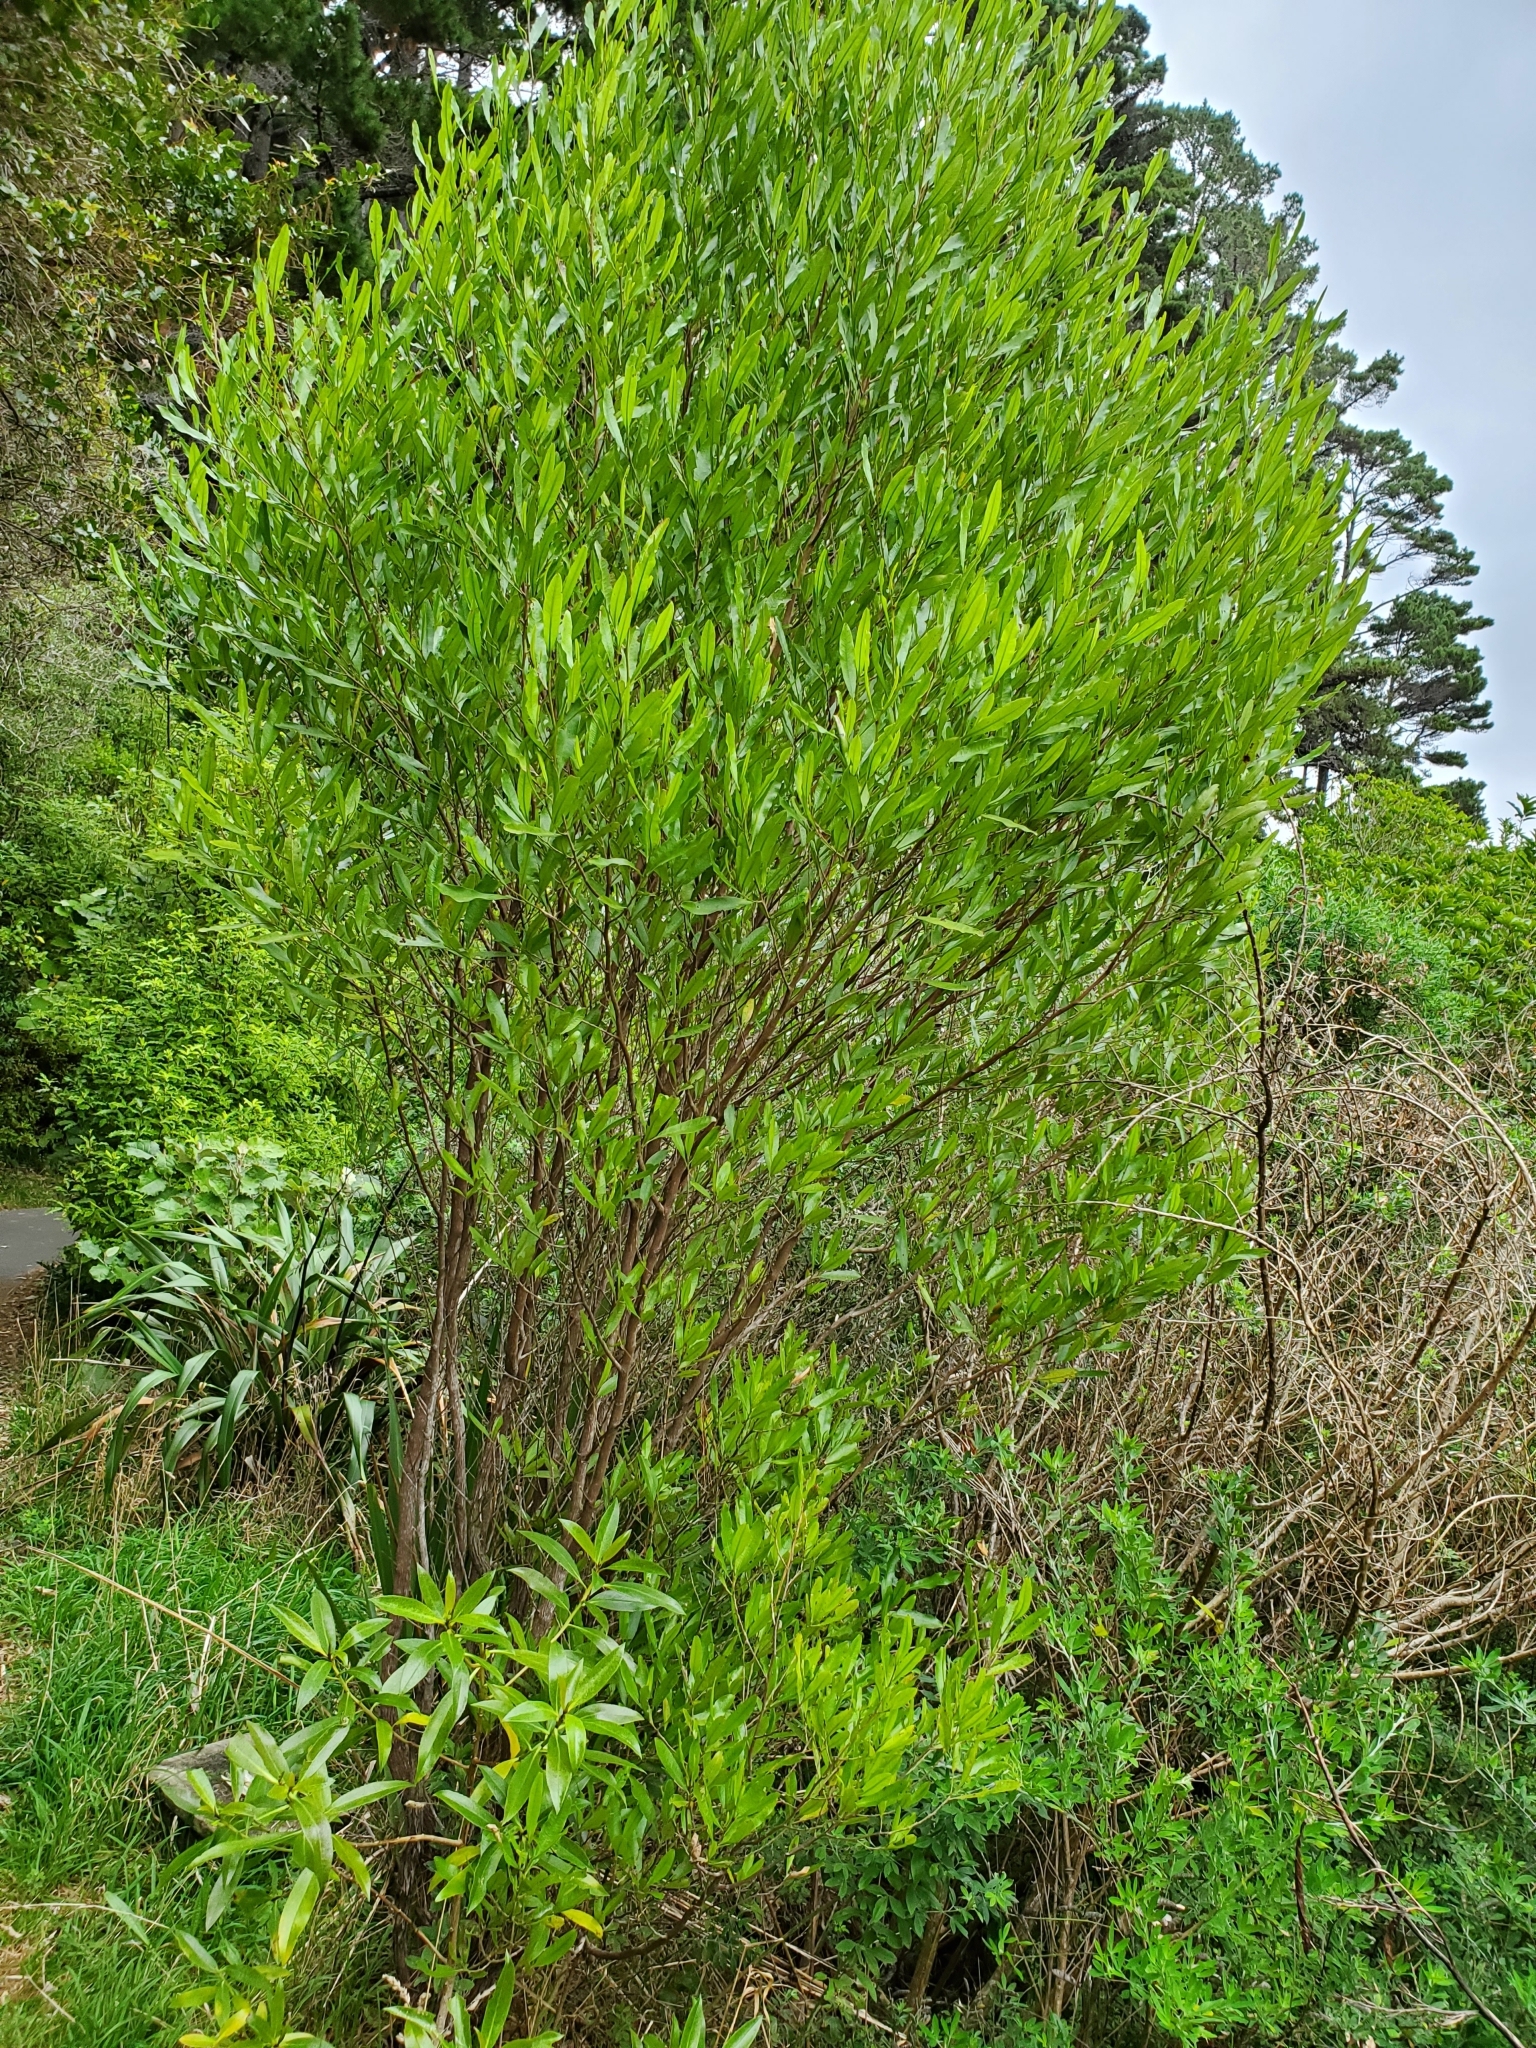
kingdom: Plantae
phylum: Tracheophyta
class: Magnoliopsida
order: Sapindales
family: Sapindaceae
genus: Dodonaea
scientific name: Dodonaea viscosa
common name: Hopbush
